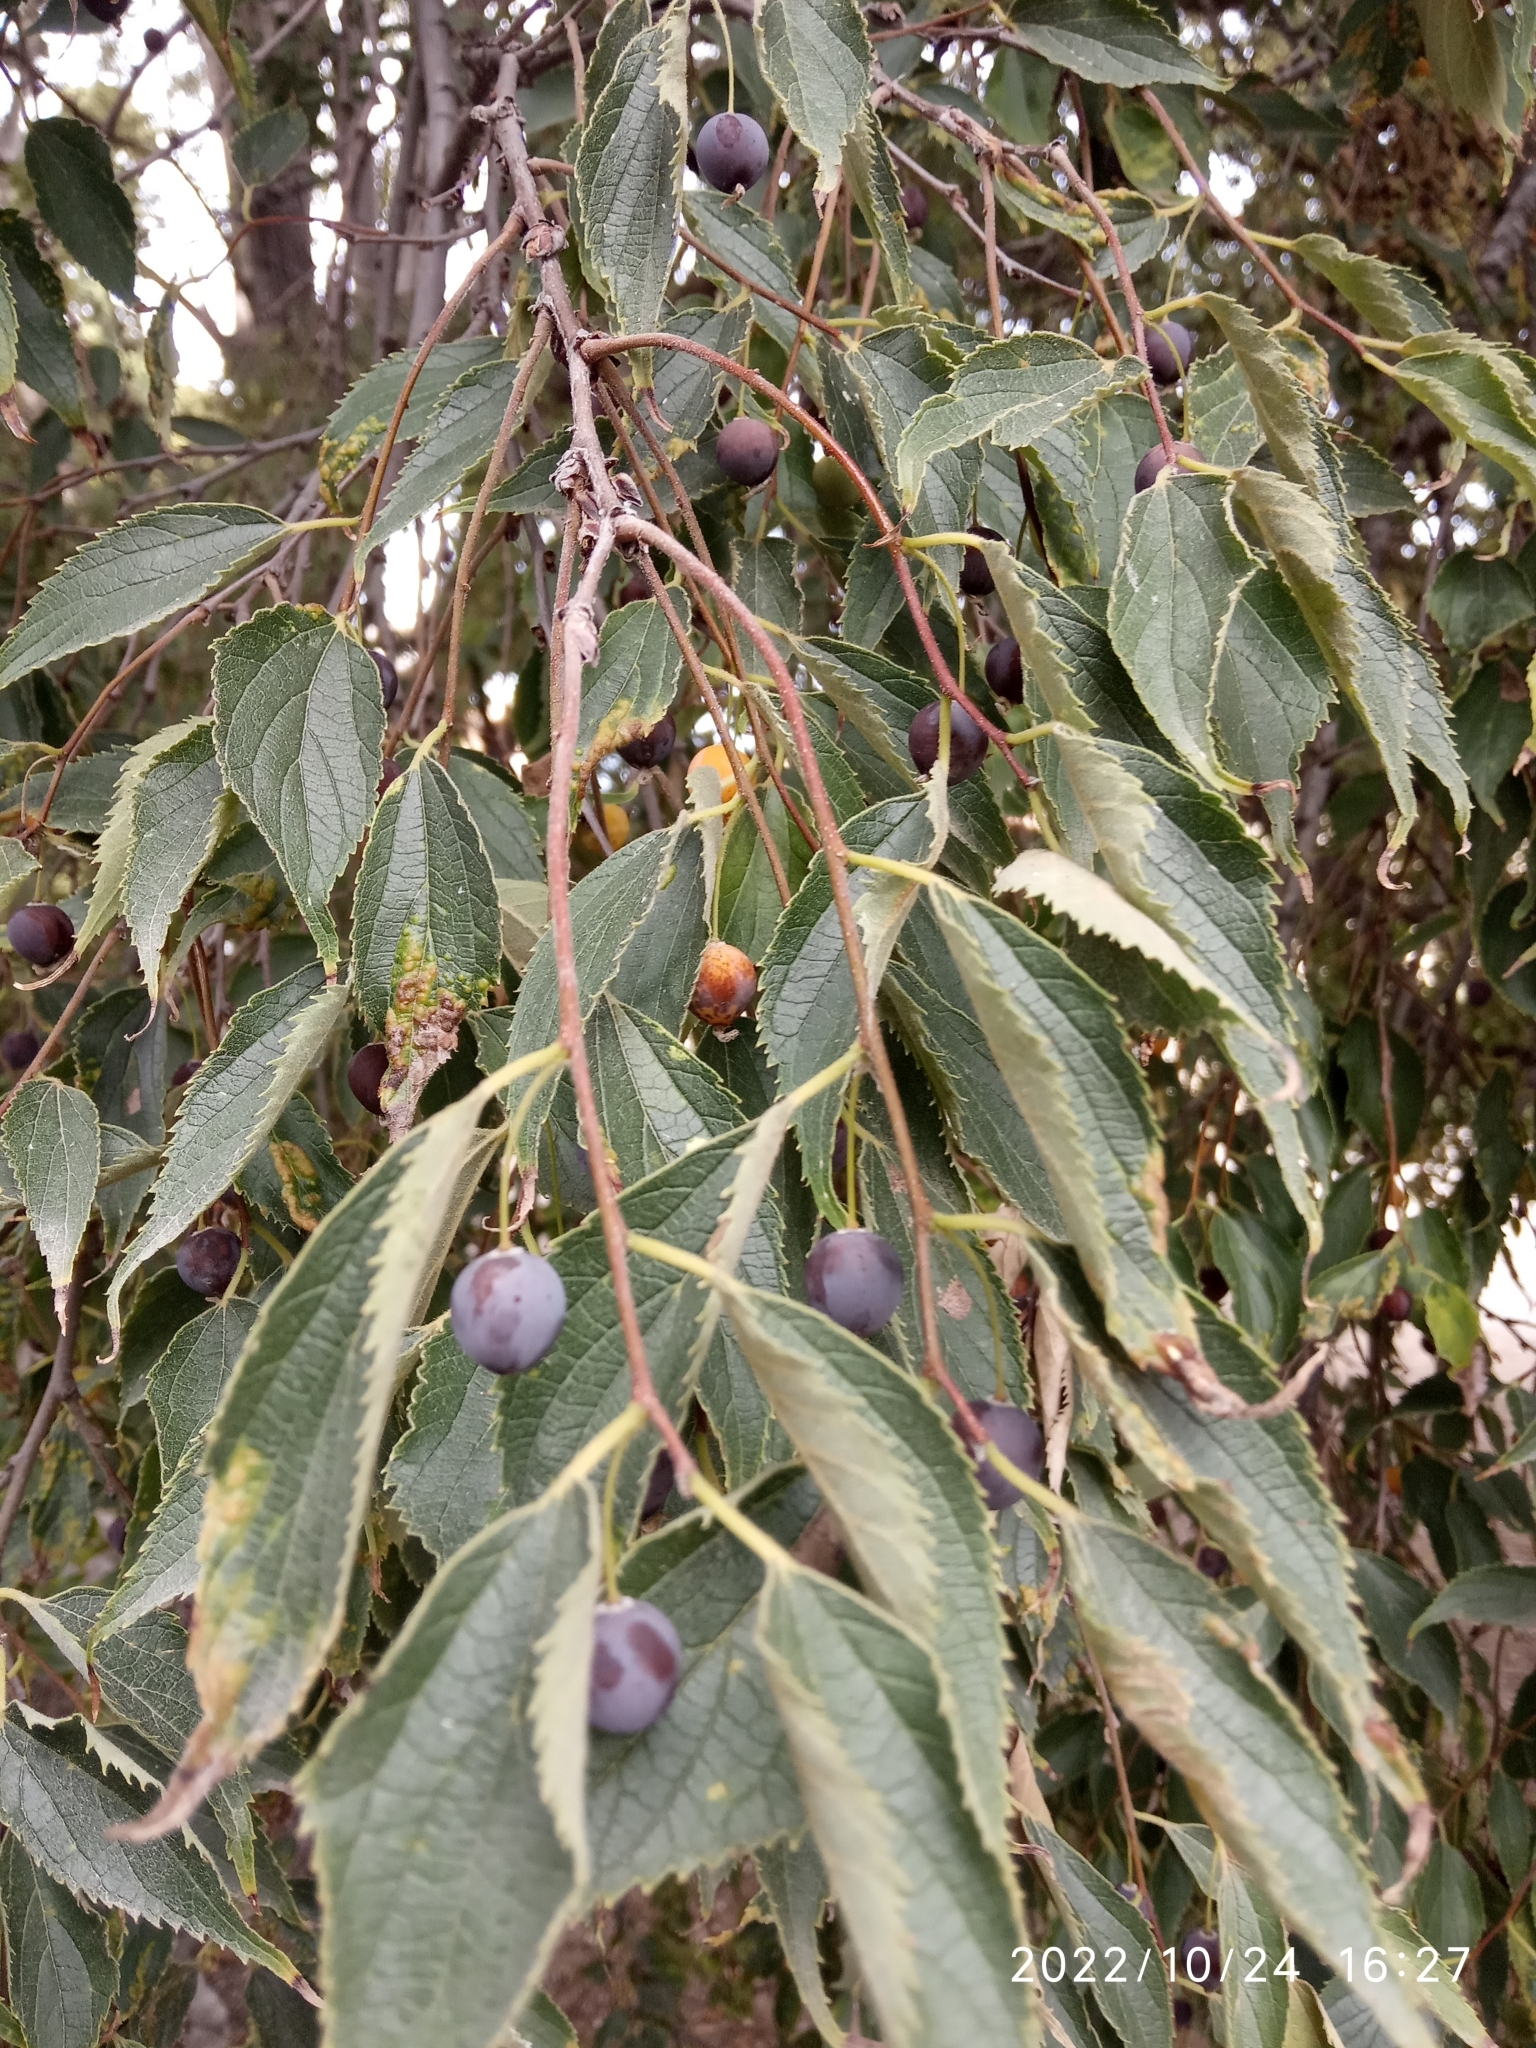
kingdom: Plantae
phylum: Tracheophyta
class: Magnoliopsida
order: Rosales
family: Cannabaceae
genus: Celtis
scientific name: Celtis australis
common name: European hackberry
